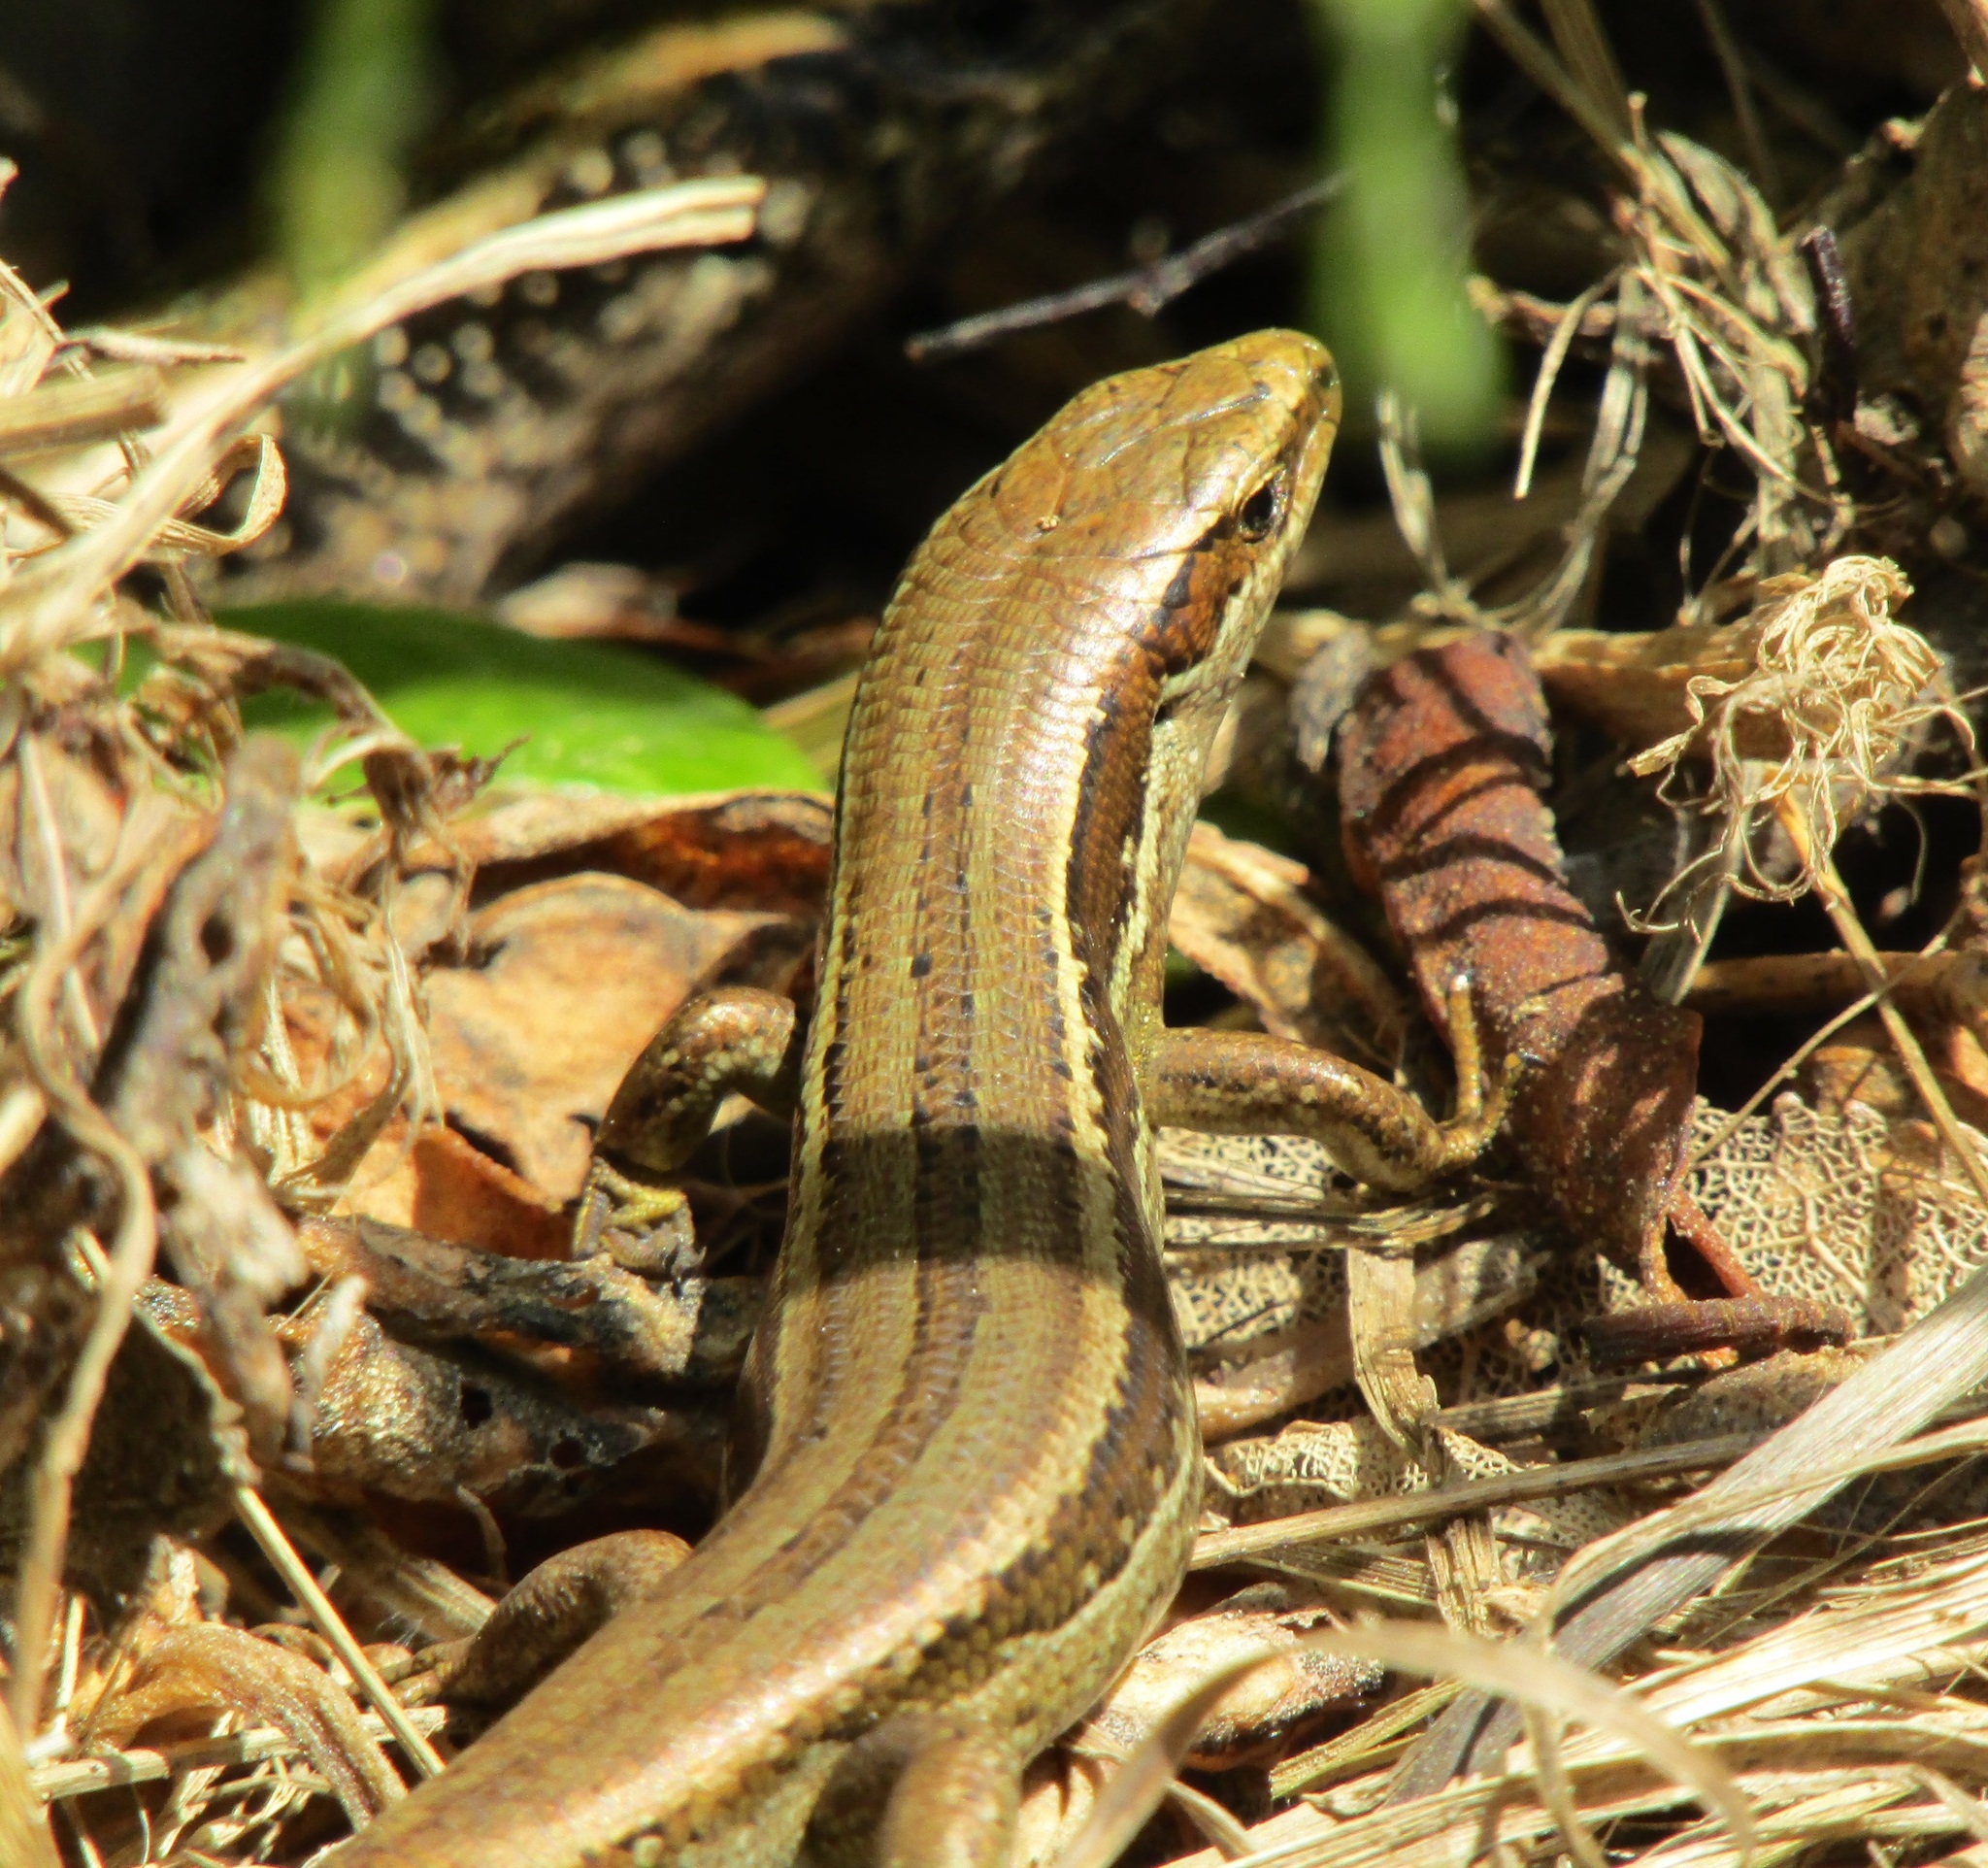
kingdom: Animalia
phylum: Chordata
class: Squamata
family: Scincidae
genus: Oligosoma
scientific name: Oligosoma polychroma
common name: Common new zealand skink
